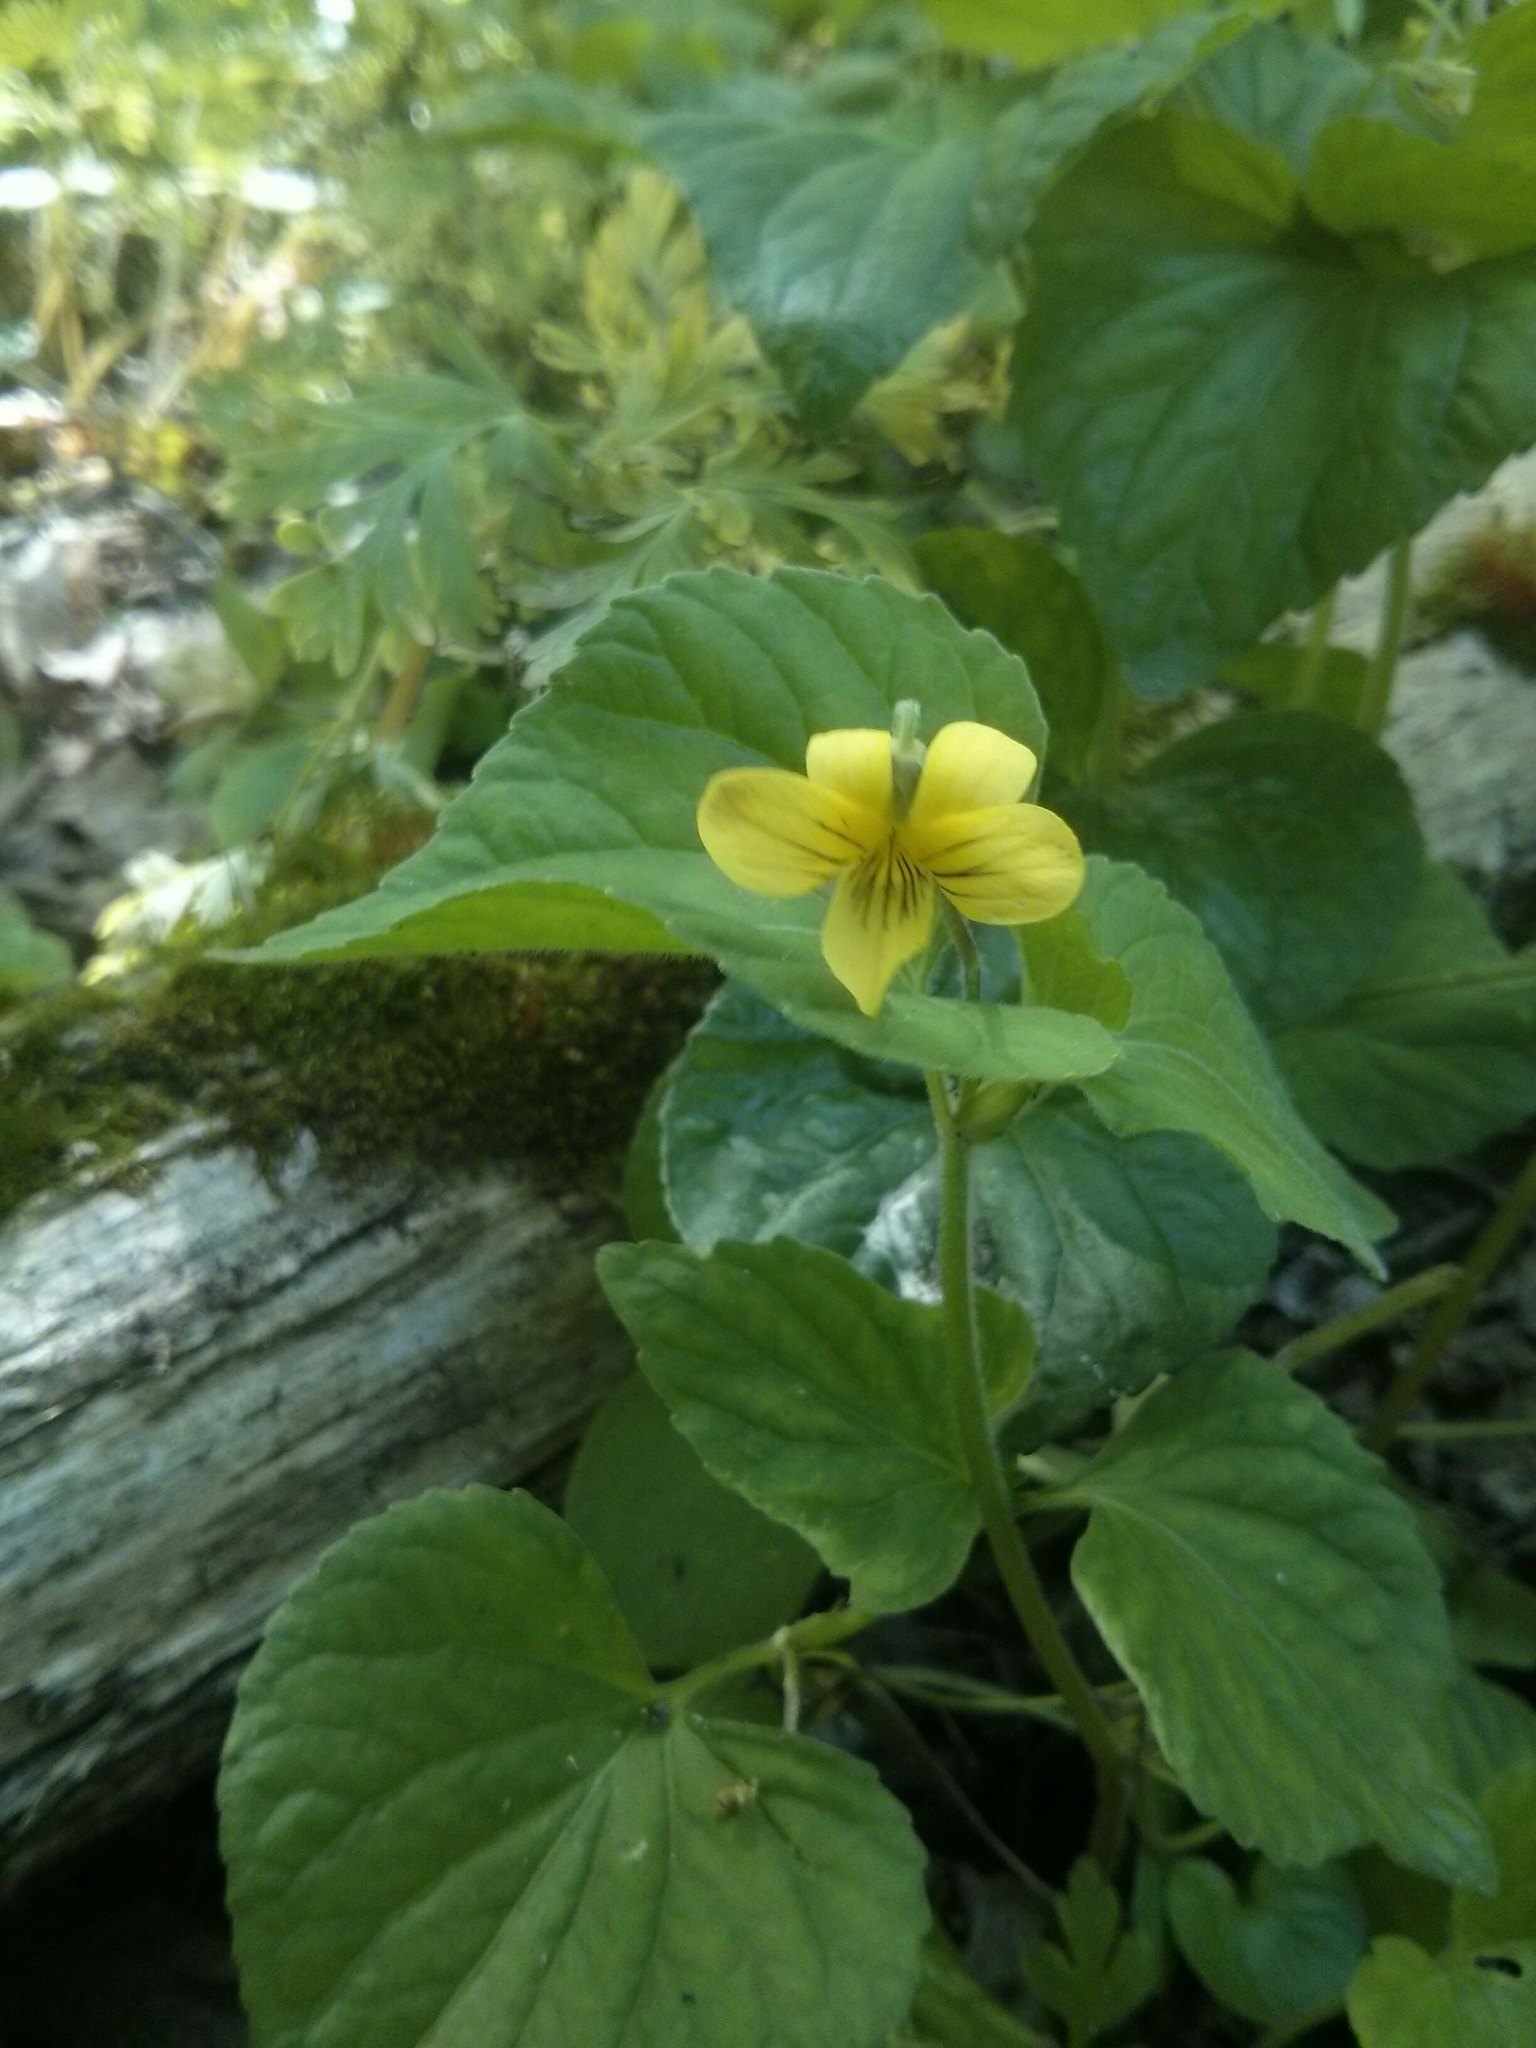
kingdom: Plantae
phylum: Tracheophyta
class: Magnoliopsida
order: Malpighiales
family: Violaceae
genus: Viola
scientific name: Viola eriocarpa
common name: Smooth yellow violet
